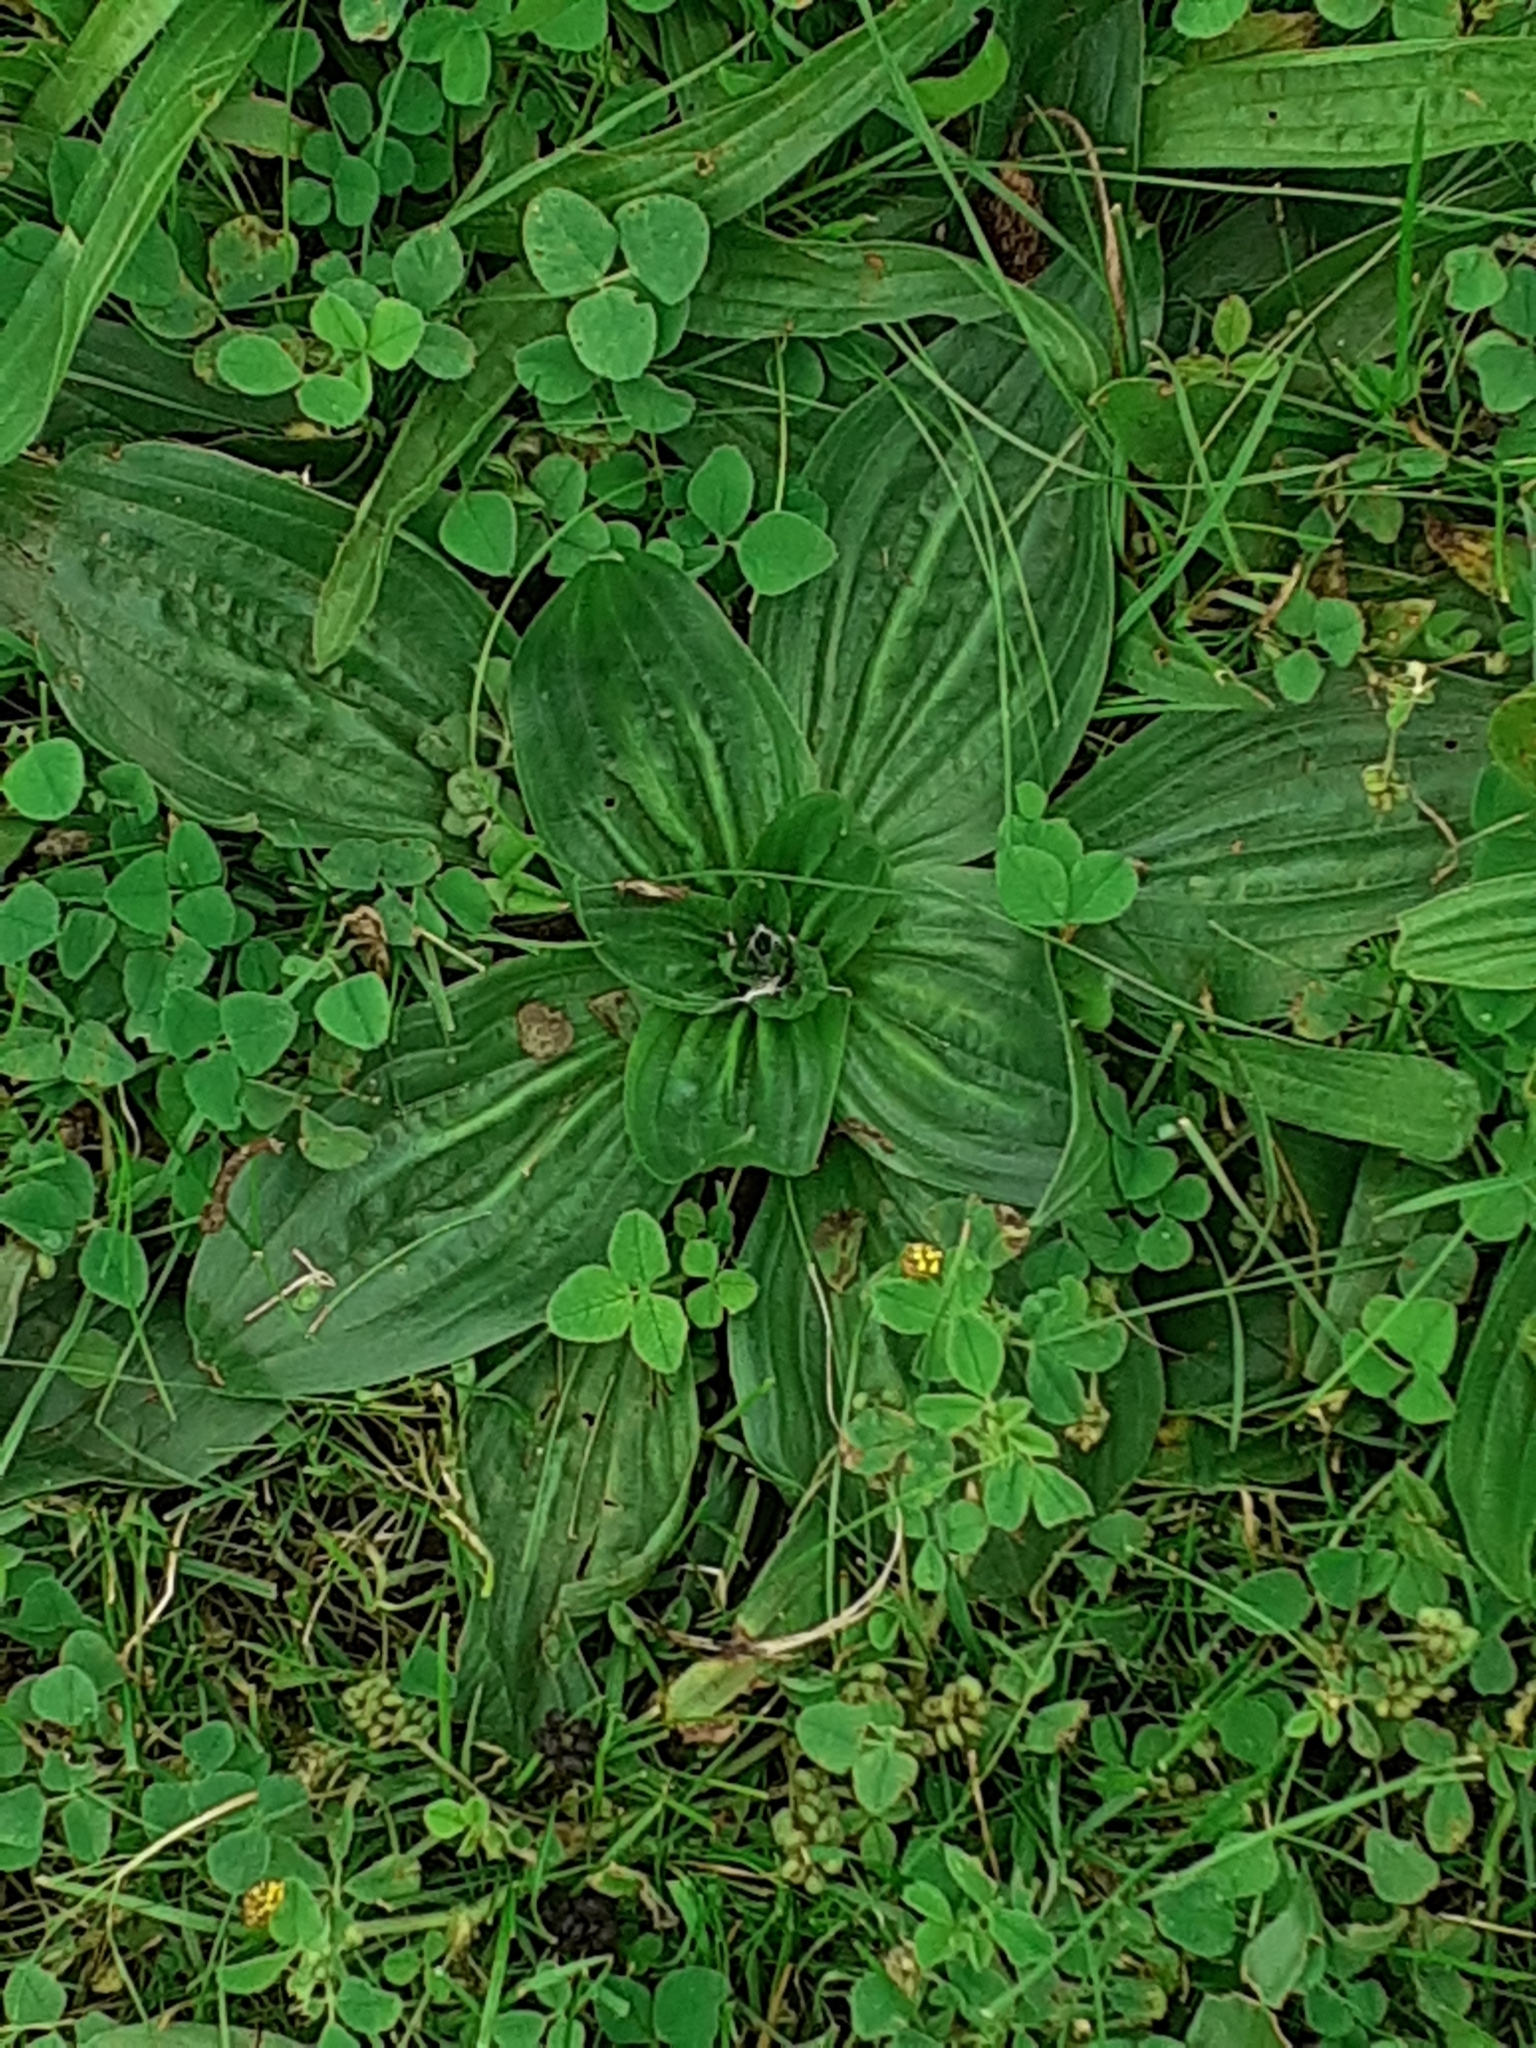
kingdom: Plantae
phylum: Tracheophyta
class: Magnoliopsida
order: Lamiales
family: Plantaginaceae
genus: Plantago
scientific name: Plantago media
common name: Hoary plantain
